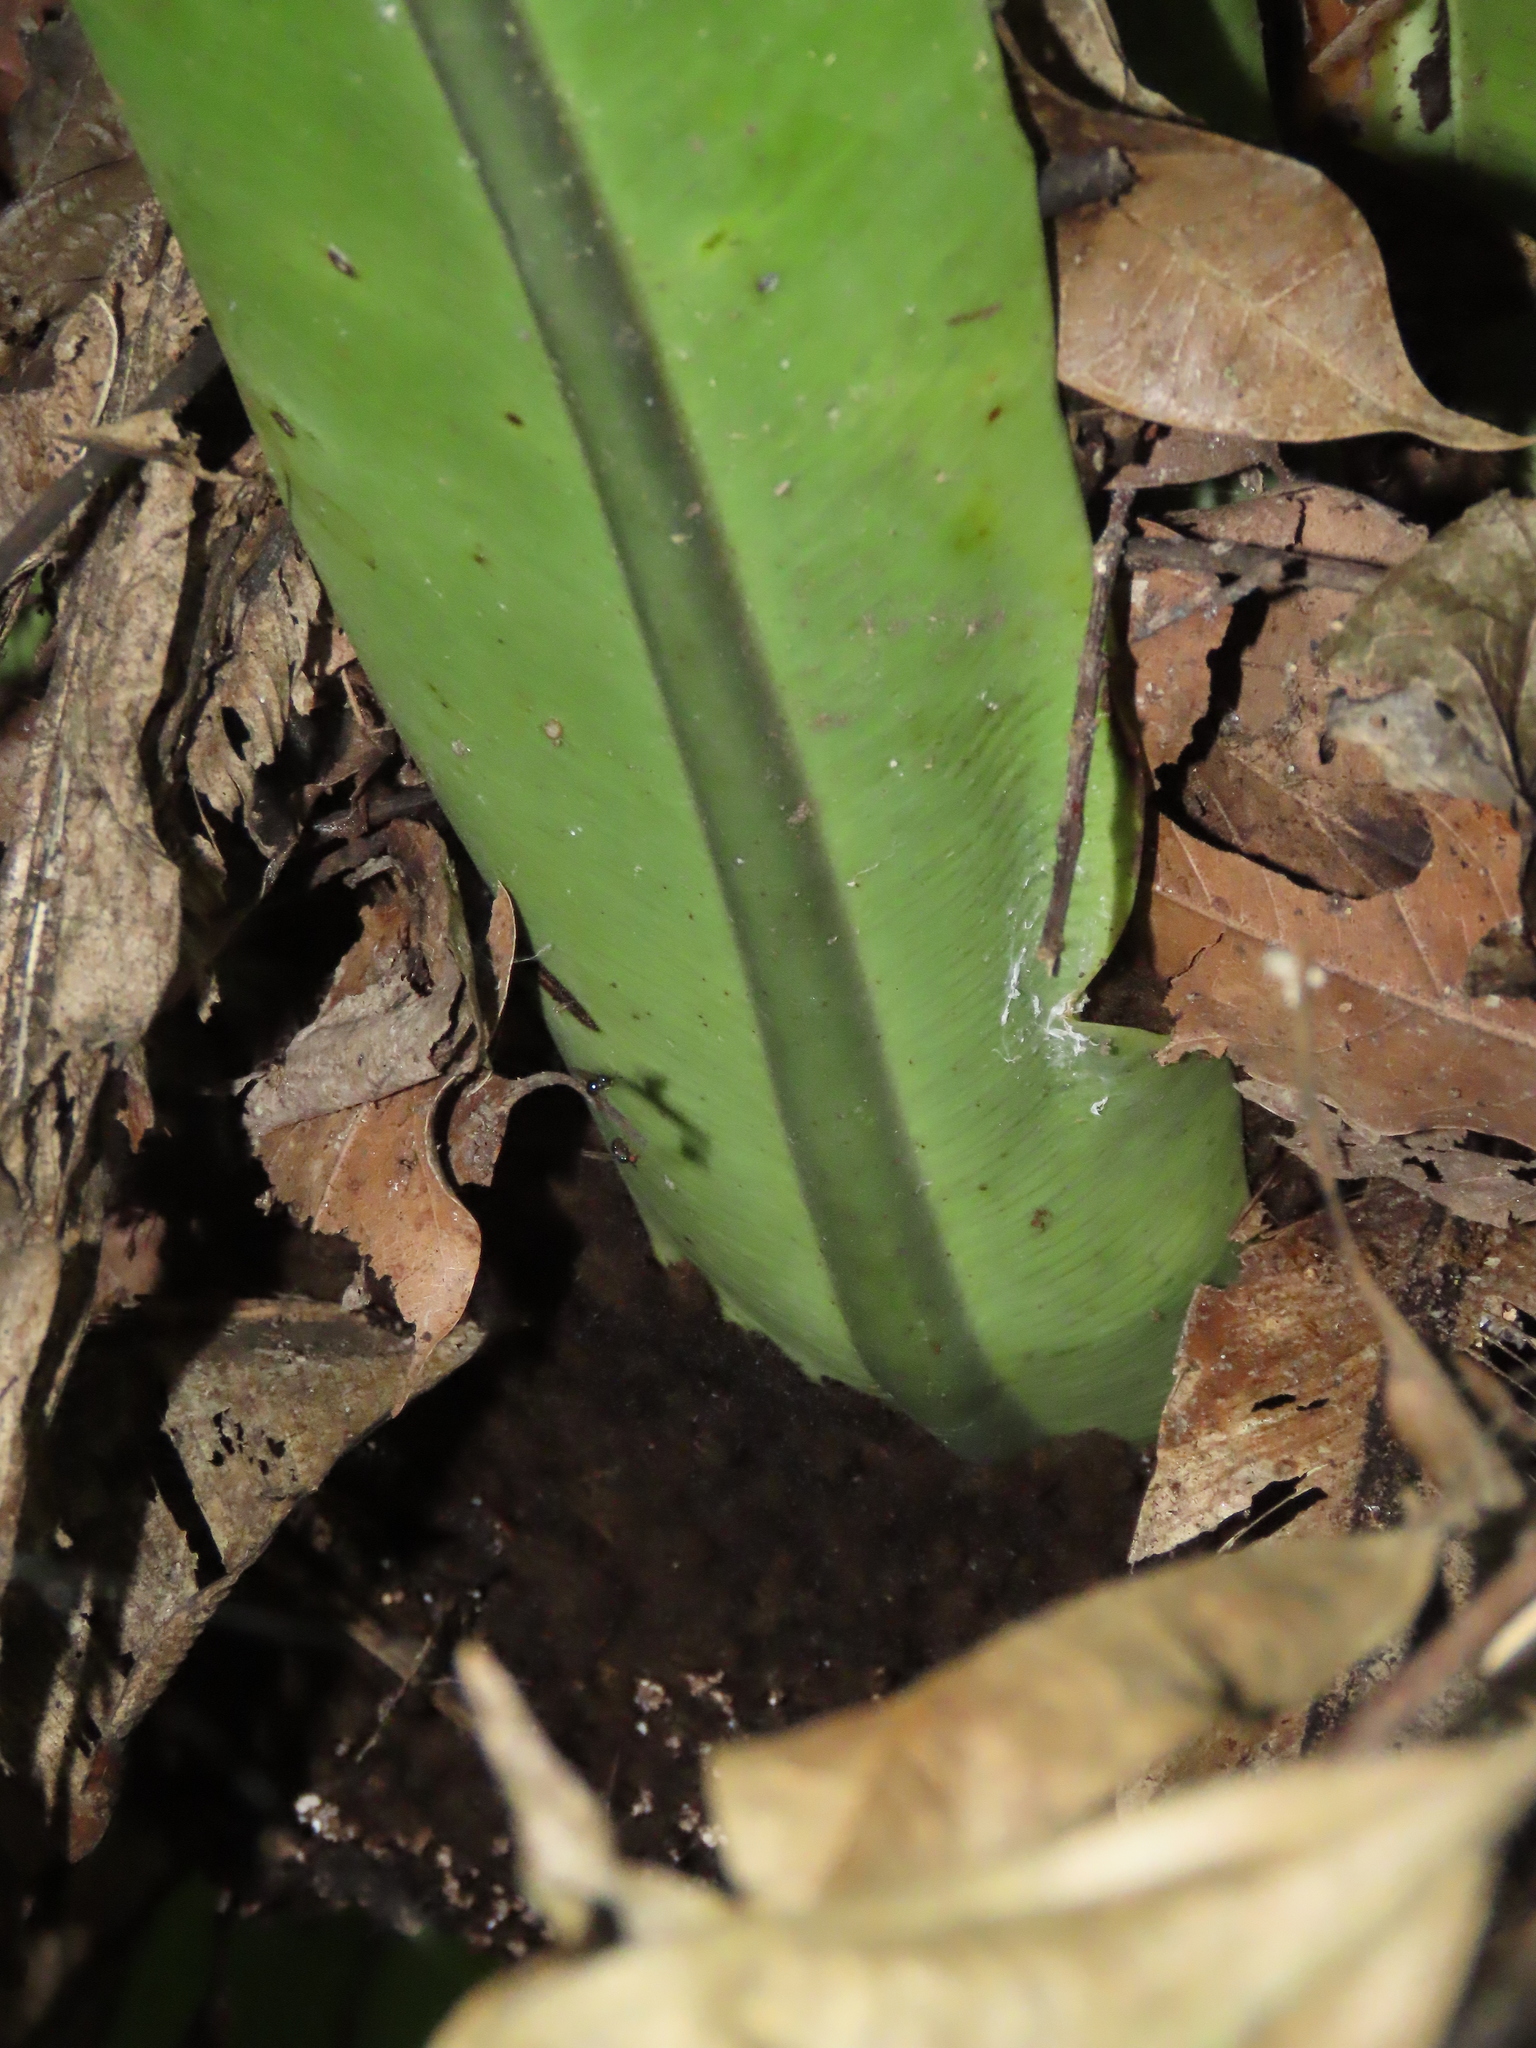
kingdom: Plantae
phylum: Tracheophyta
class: Polypodiopsida
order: Polypodiales
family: Aspleniaceae
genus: Asplenium
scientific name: Asplenium nidus
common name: Bird's-nest fern
